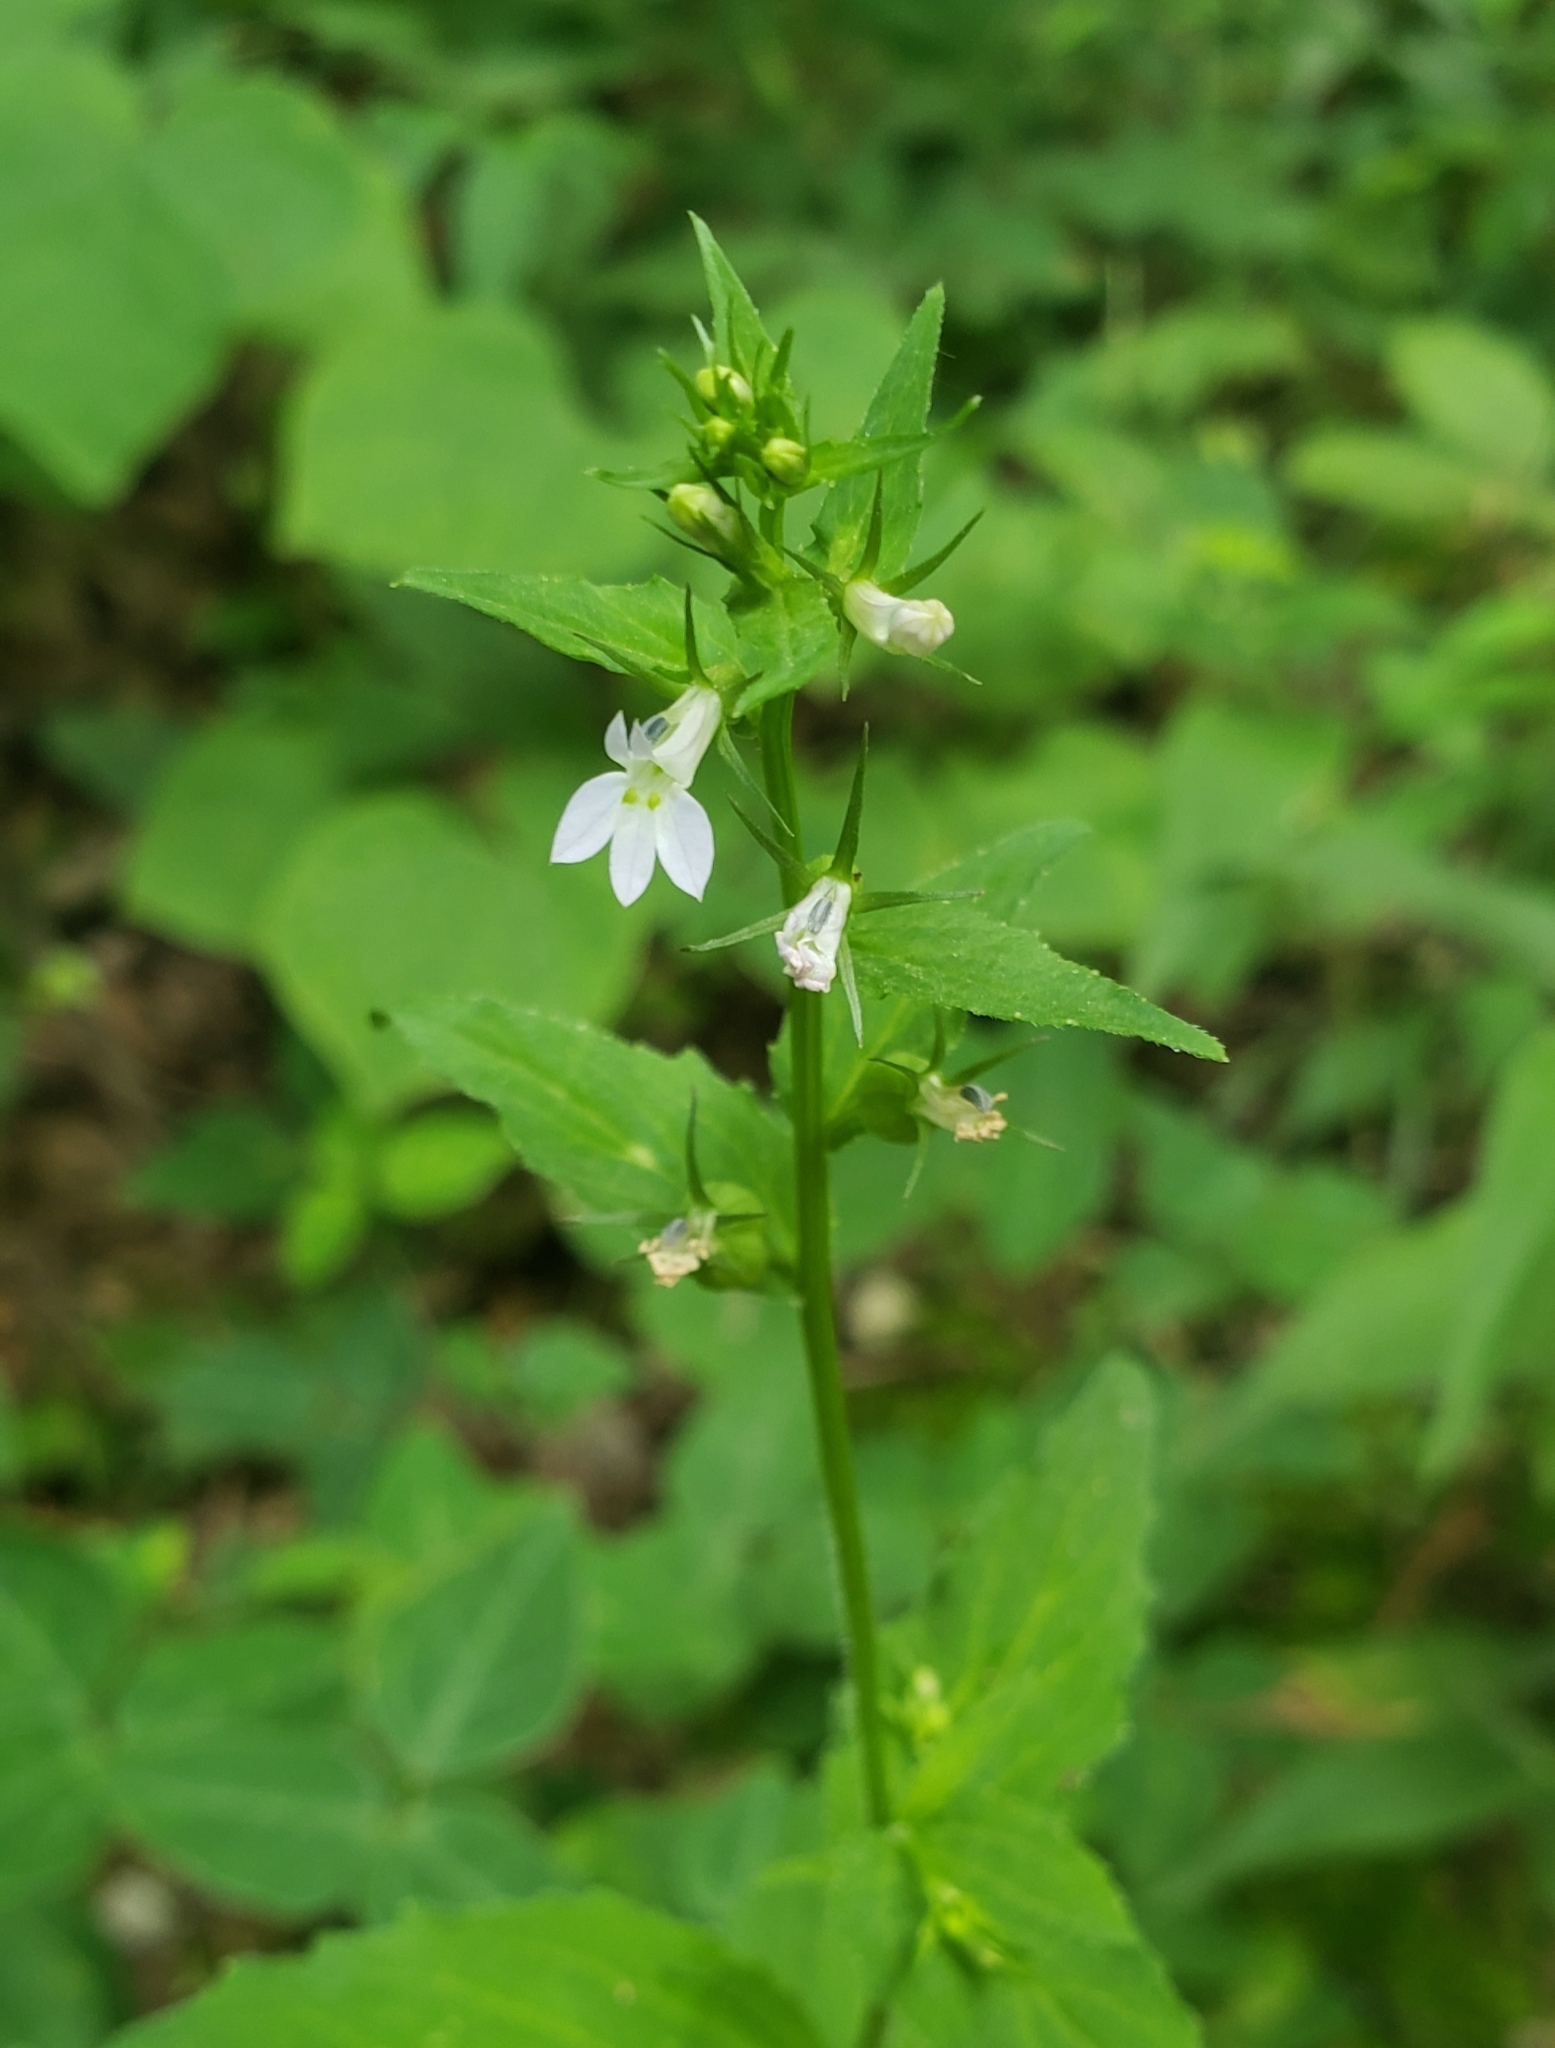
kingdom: Plantae
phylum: Tracheophyta
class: Magnoliopsida
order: Asterales
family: Campanulaceae
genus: Lobelia
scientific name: Lobelia inflata
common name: Indian tobacco
